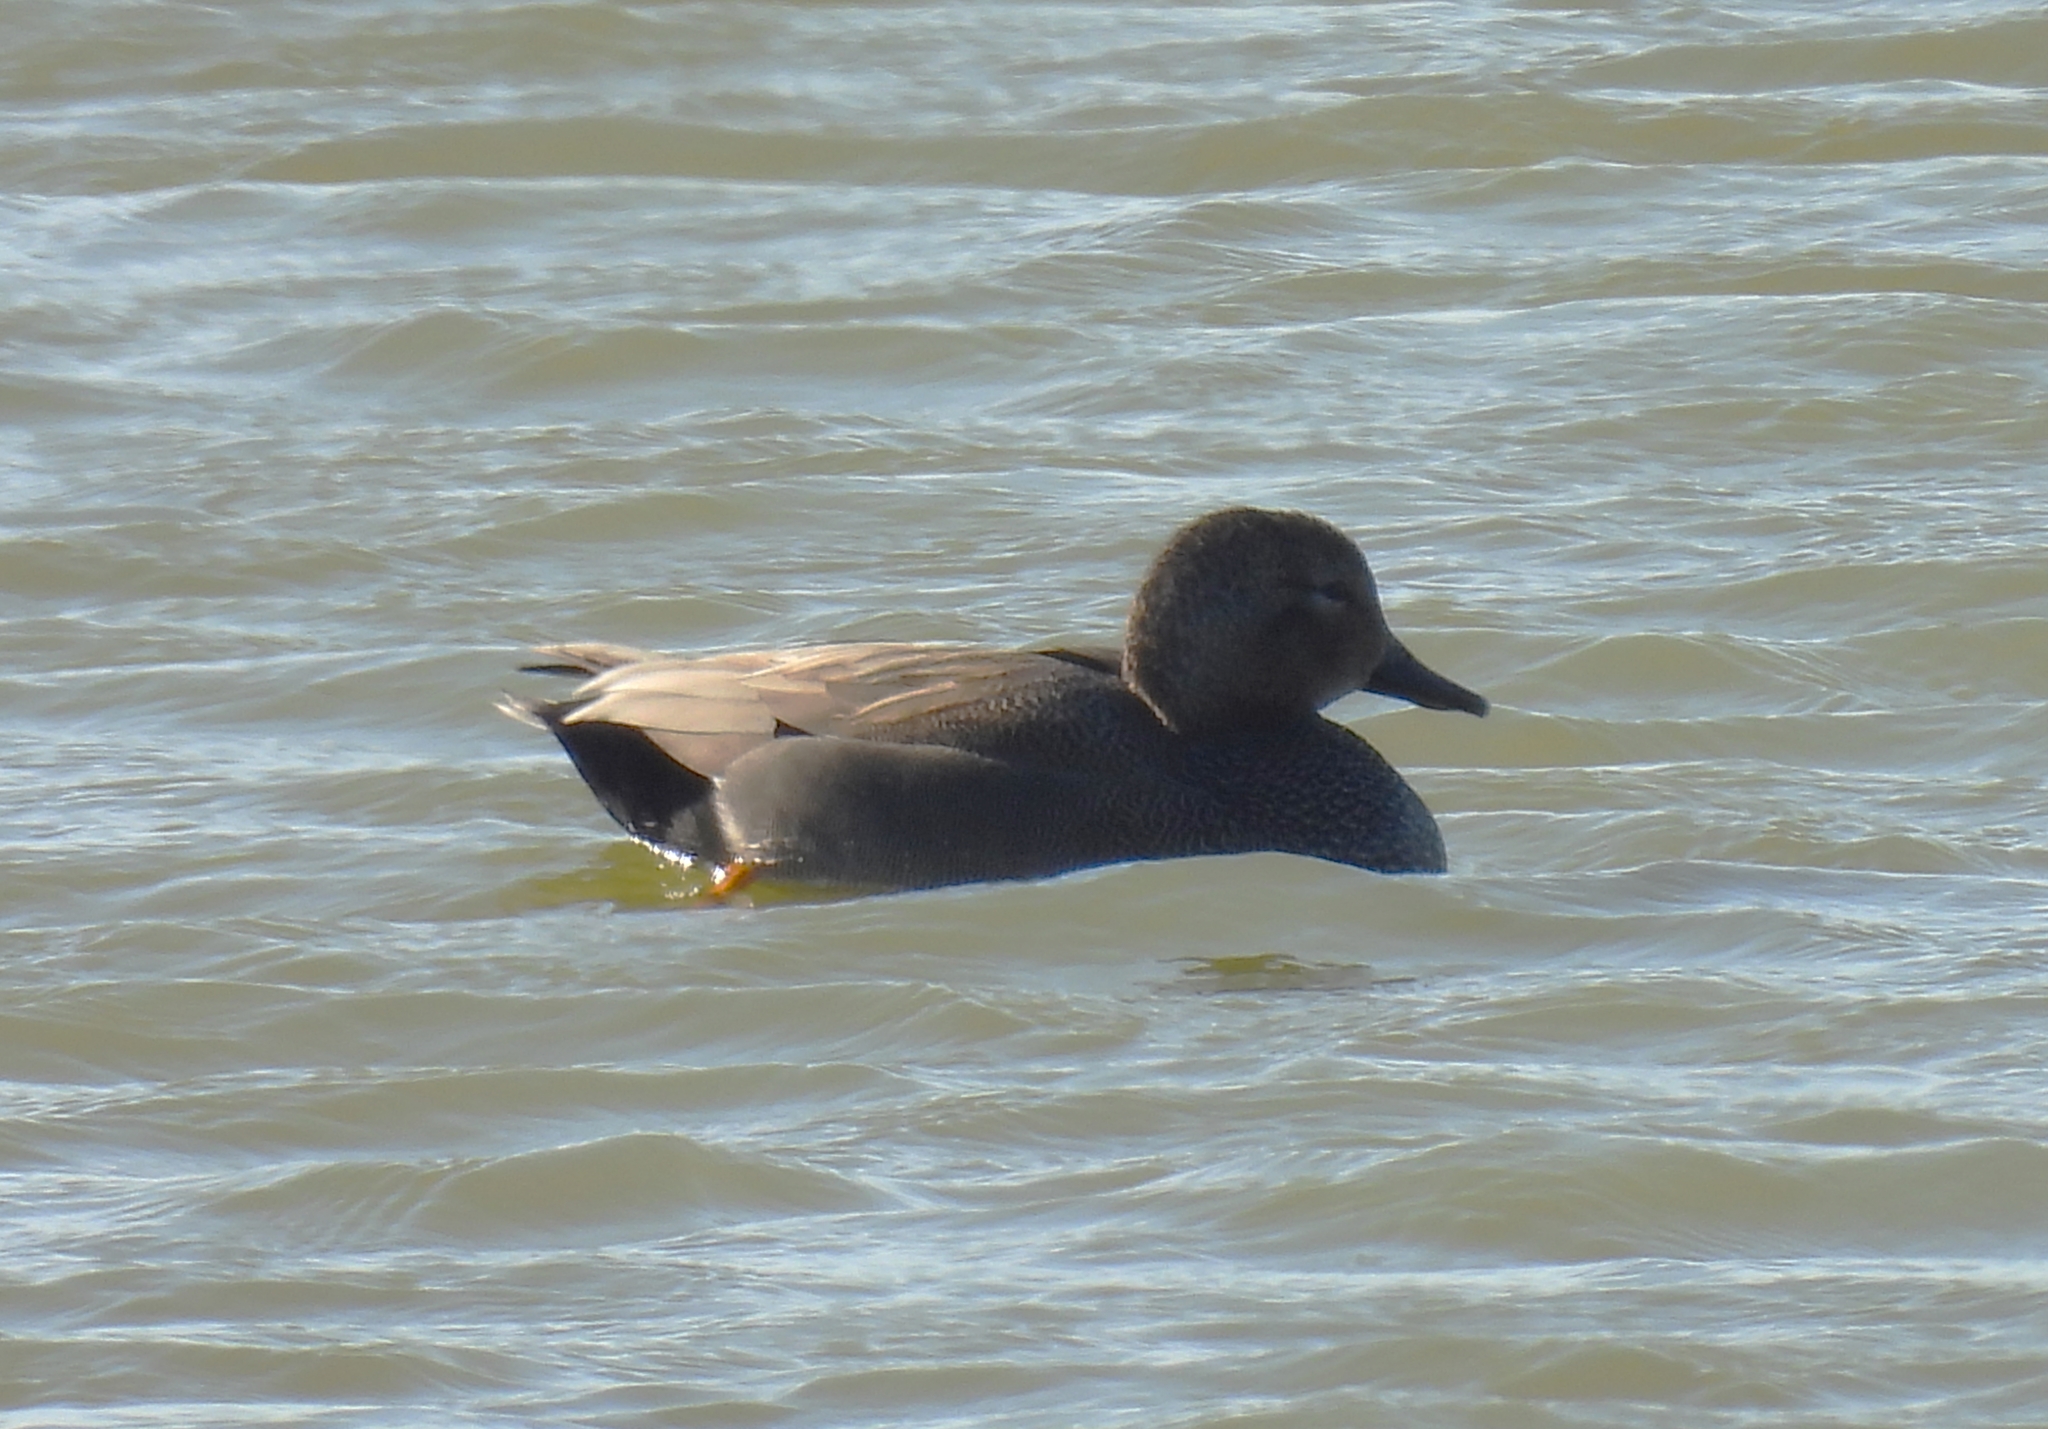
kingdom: Animalia
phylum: Chordata
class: Aves
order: Anseriformes
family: Anatidae
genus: Mareca
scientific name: Mareca strepera
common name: Gadwall
